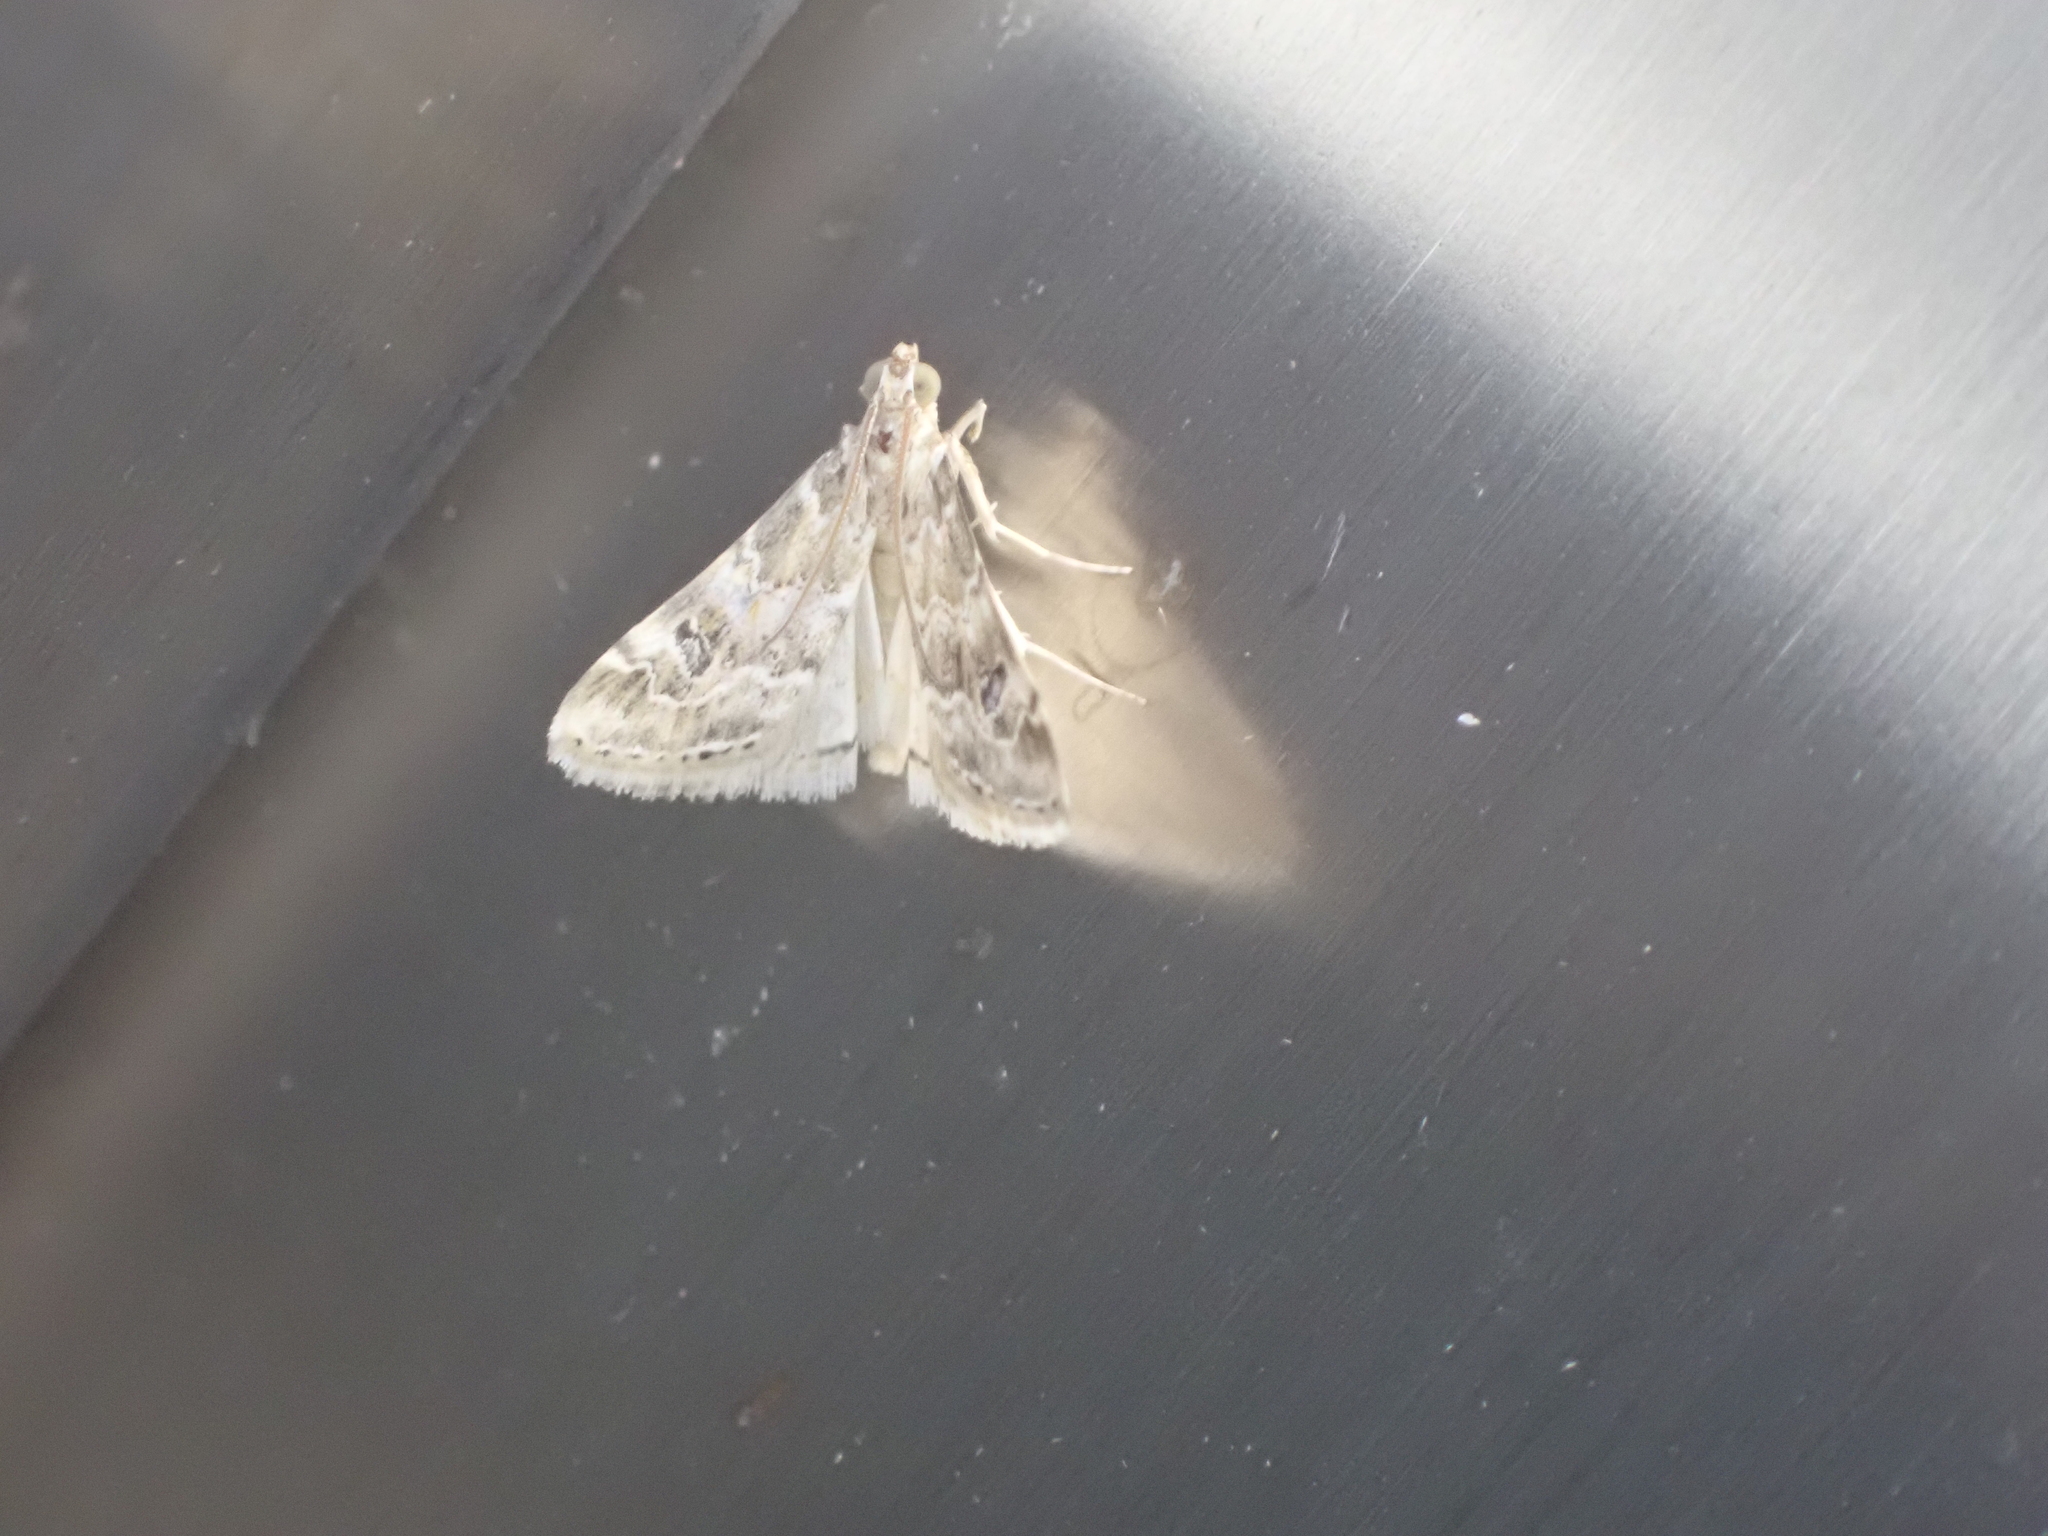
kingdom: Animalia
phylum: Arthropoda
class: Insecta
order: Lepidoptera
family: Crambidae
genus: Hellula
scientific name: Hellula undalis
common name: Cabbage webworm
